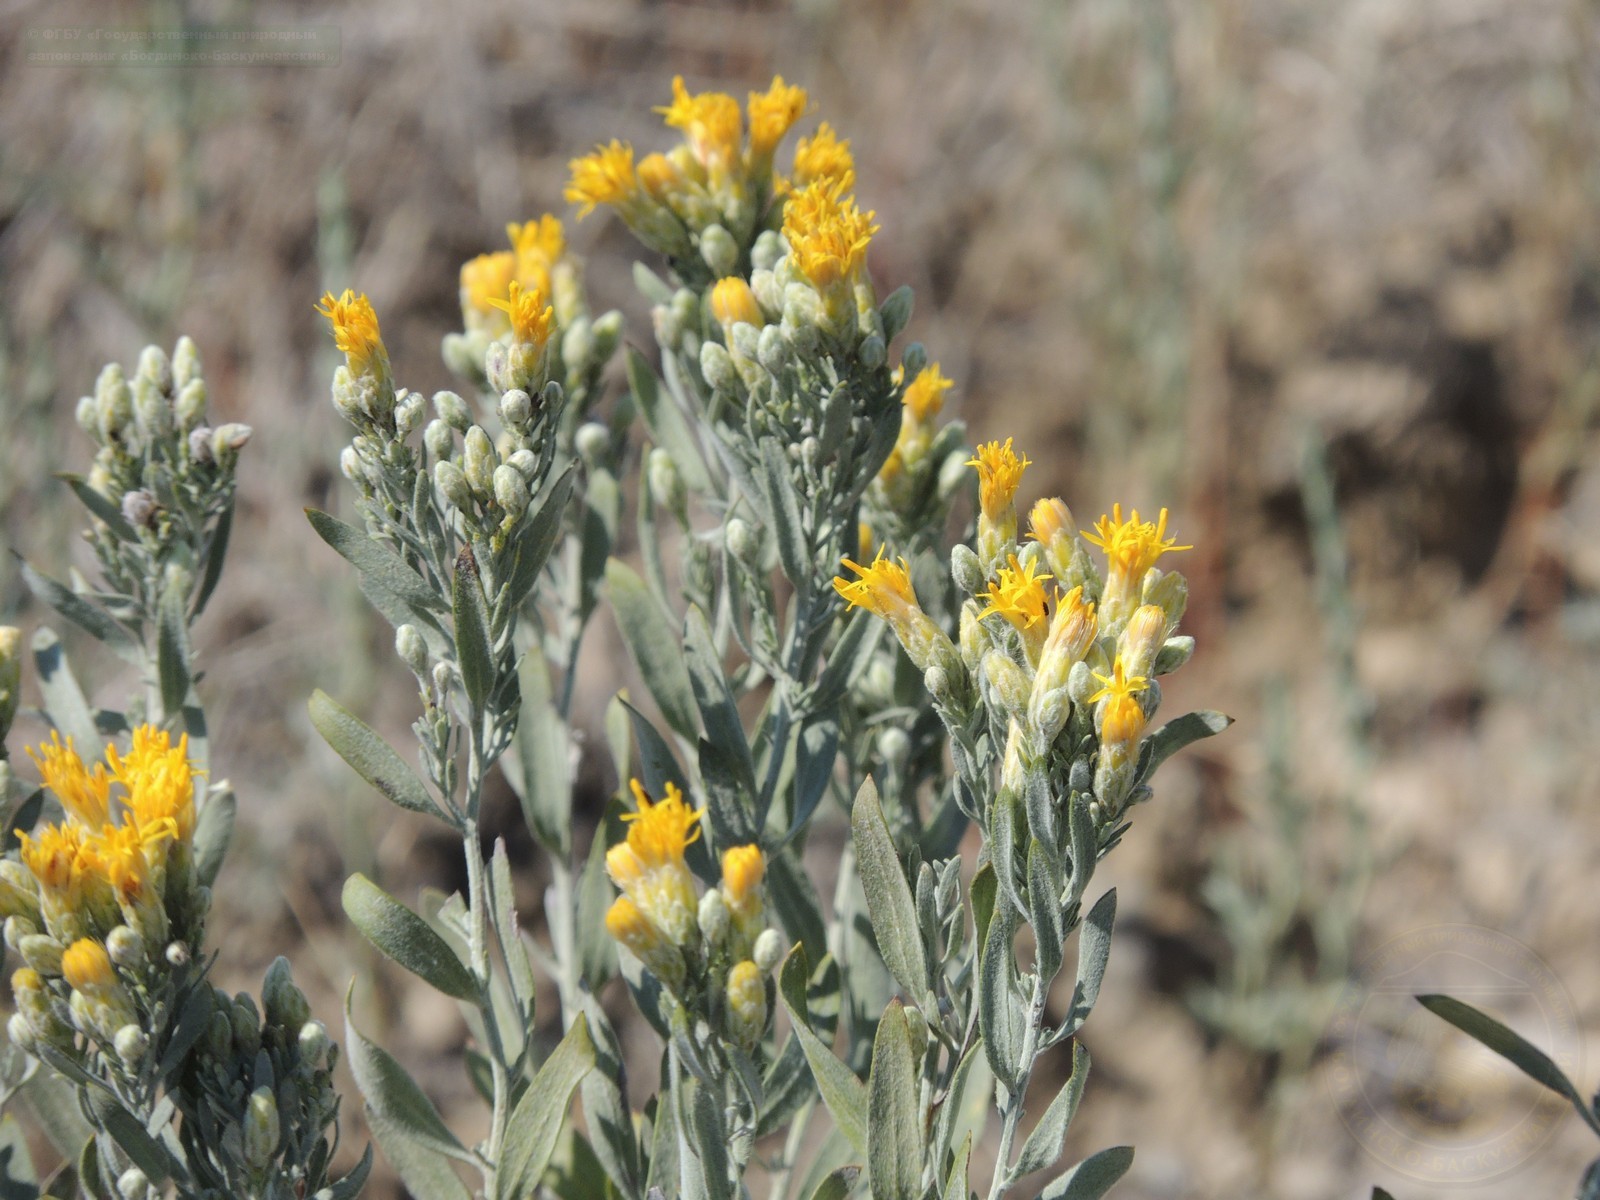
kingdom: Plantae
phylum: Tracheophyta
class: Magnoliopsida
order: Asterales
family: Asteraceae
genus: Galatella
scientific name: Galatella villosa
